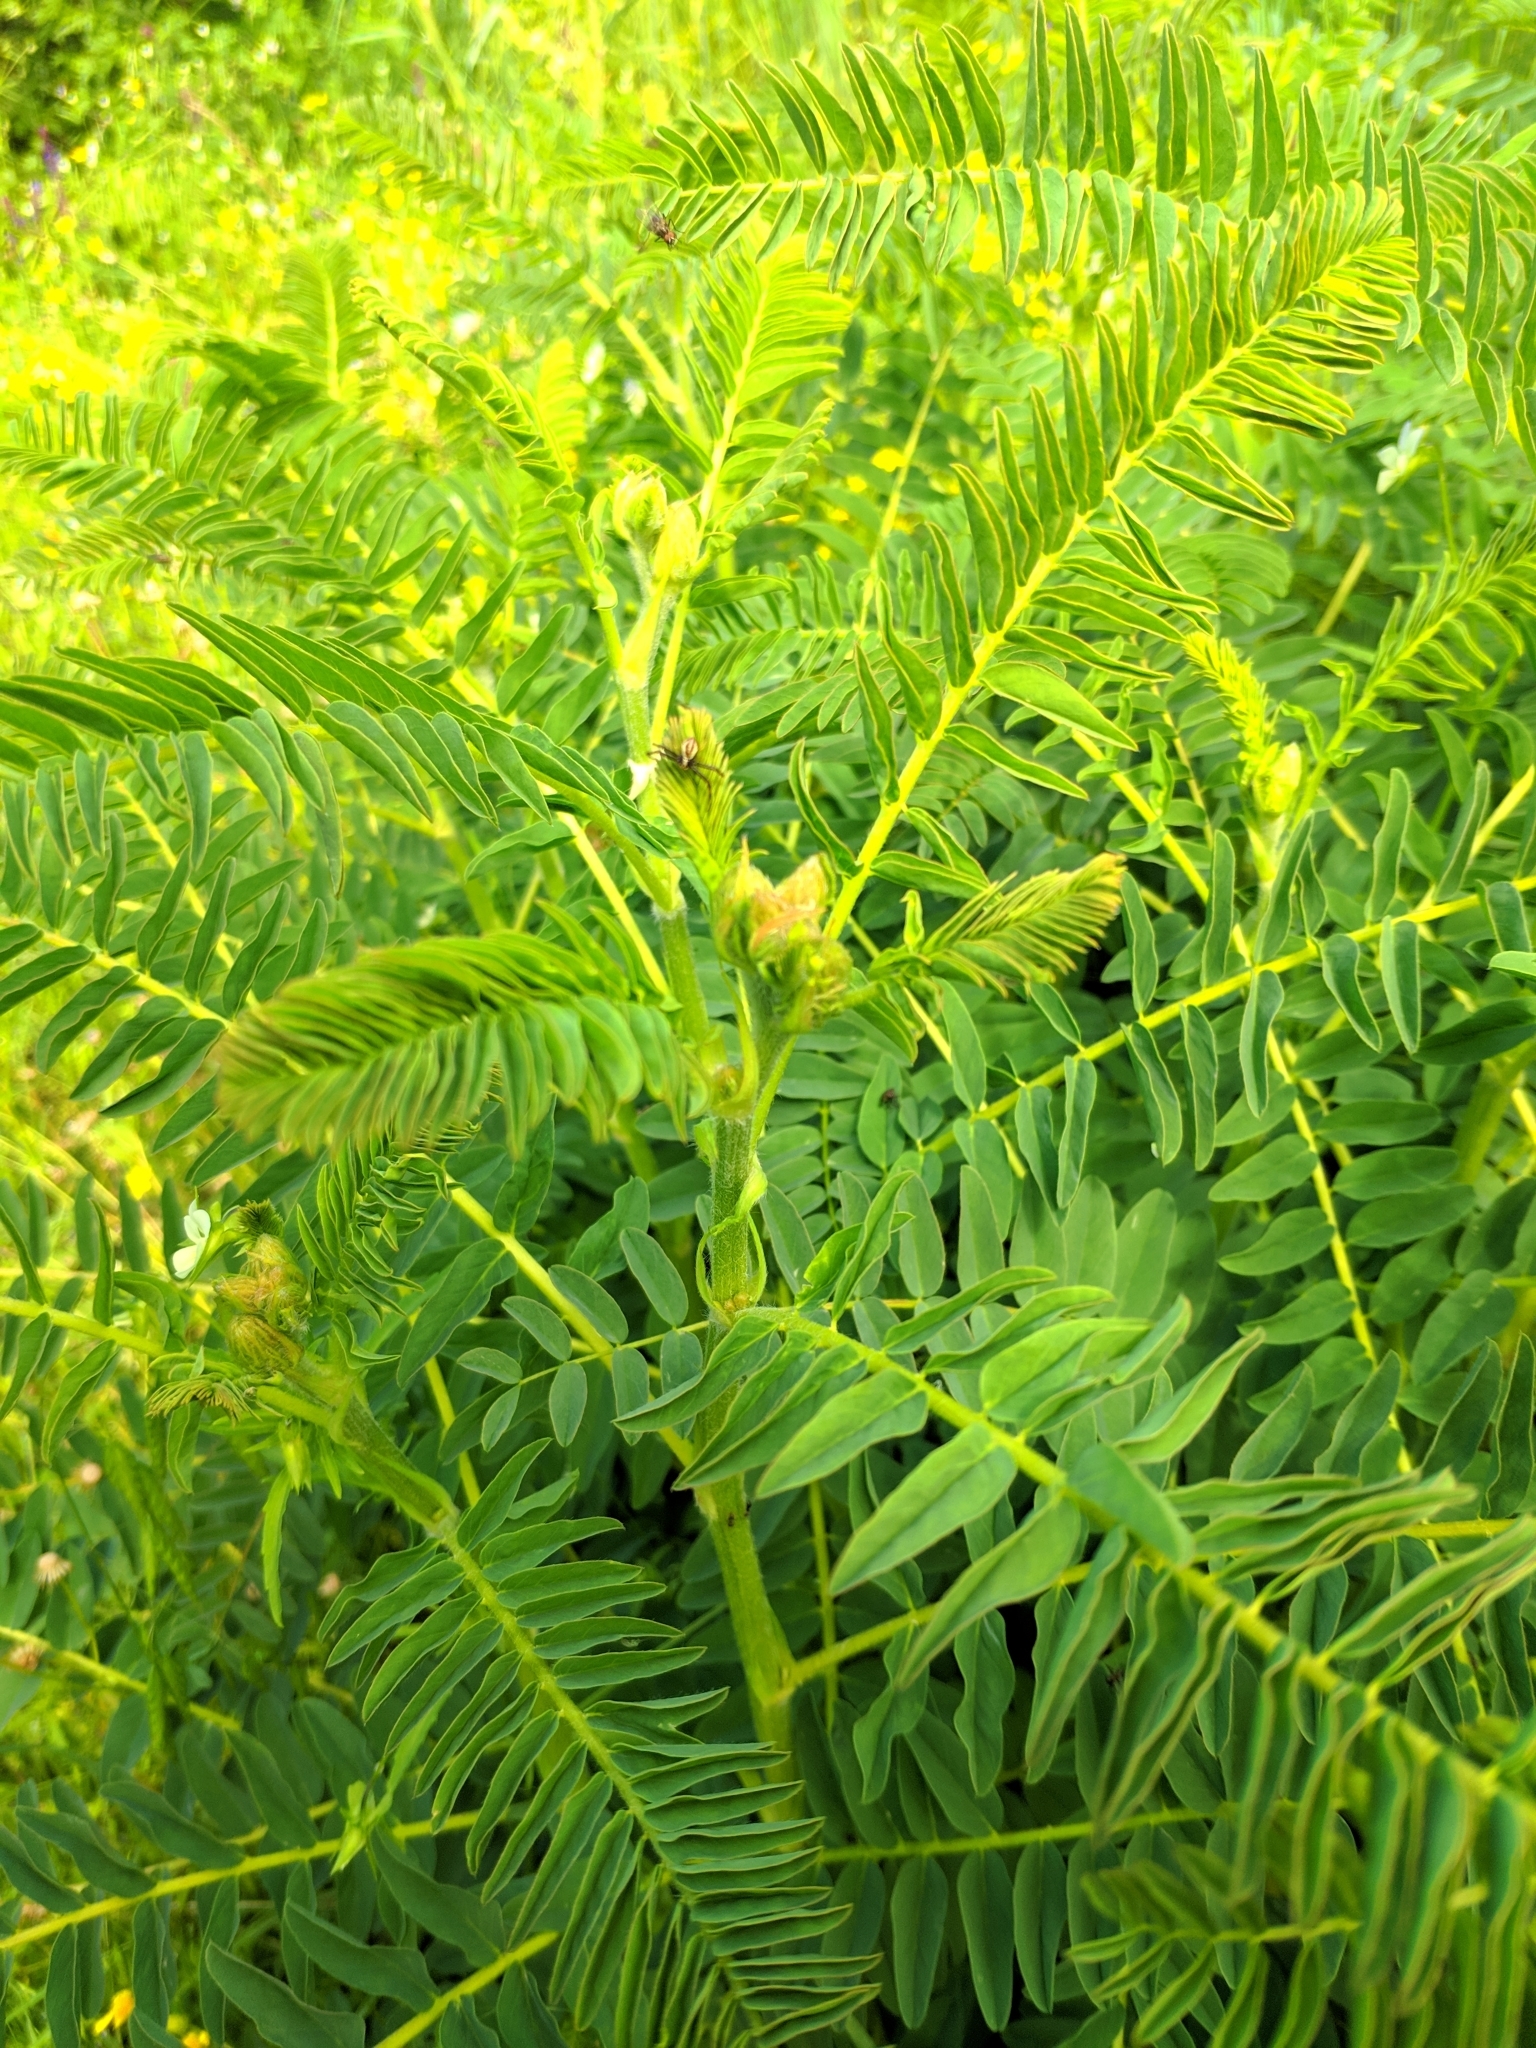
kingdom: Plantae
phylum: Tracheophyta
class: Magnoliopsida
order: Fabales
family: Fabaceae
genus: Astragalus
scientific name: Astragalus ponticus
